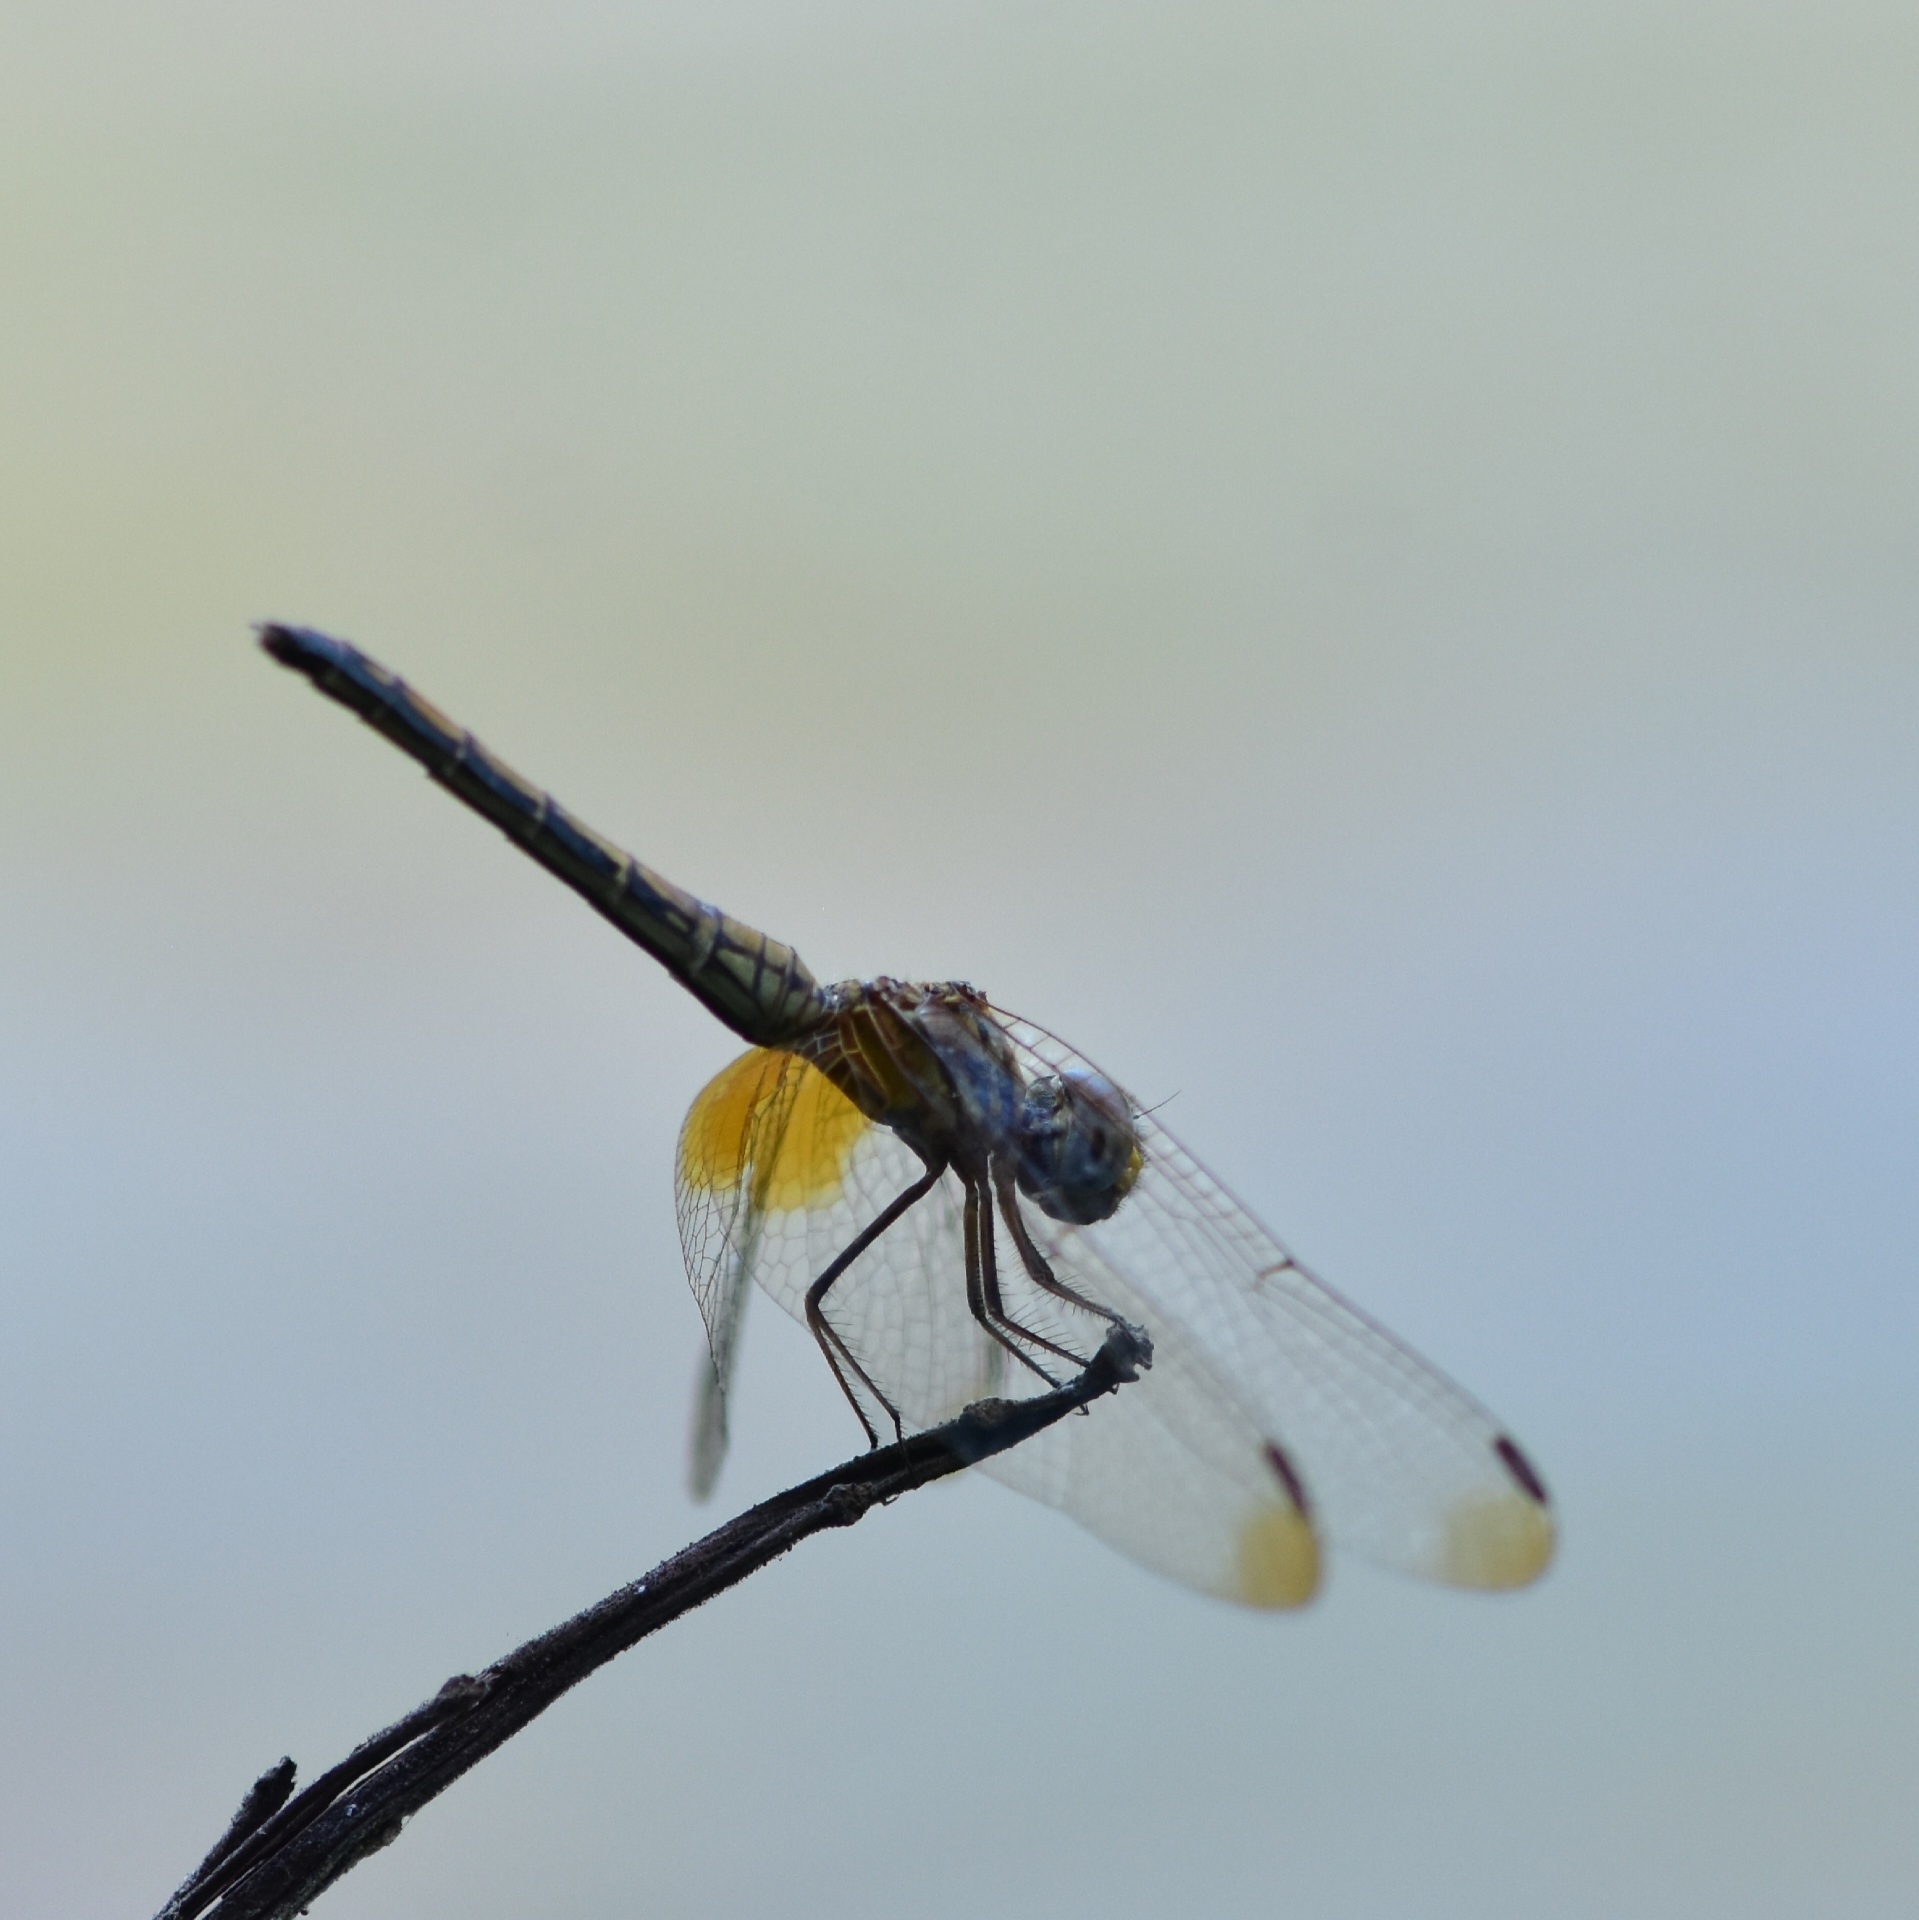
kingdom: Animalia
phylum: Arthropoda
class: Insecta
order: Odonata
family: Libellulidae
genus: Trithemis
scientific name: Trithemis aurora
